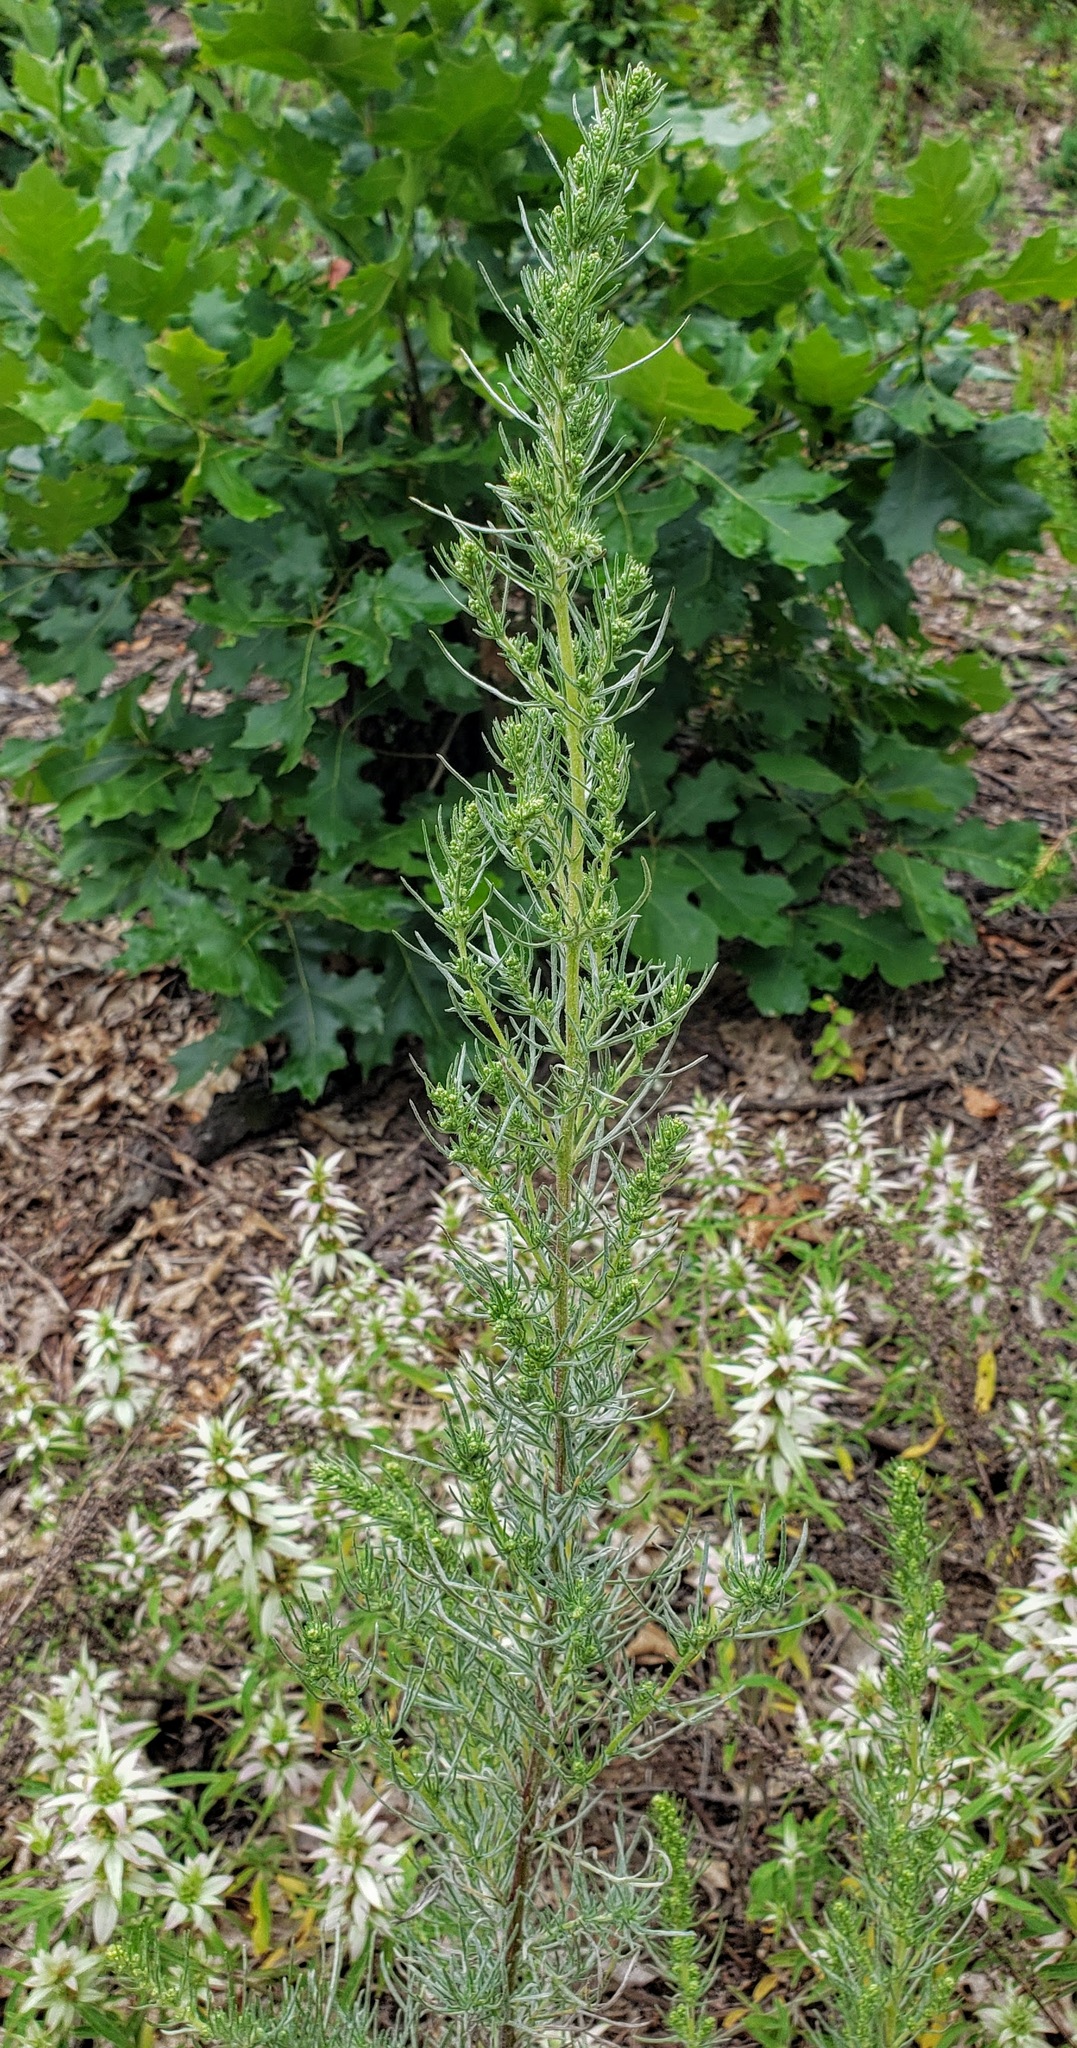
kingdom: Plantae
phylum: Tracheophyta
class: Magnoliopsida
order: Asterales
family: Asteraceae
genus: Artemisia
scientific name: Artemisia campestris
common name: Field wormwood
